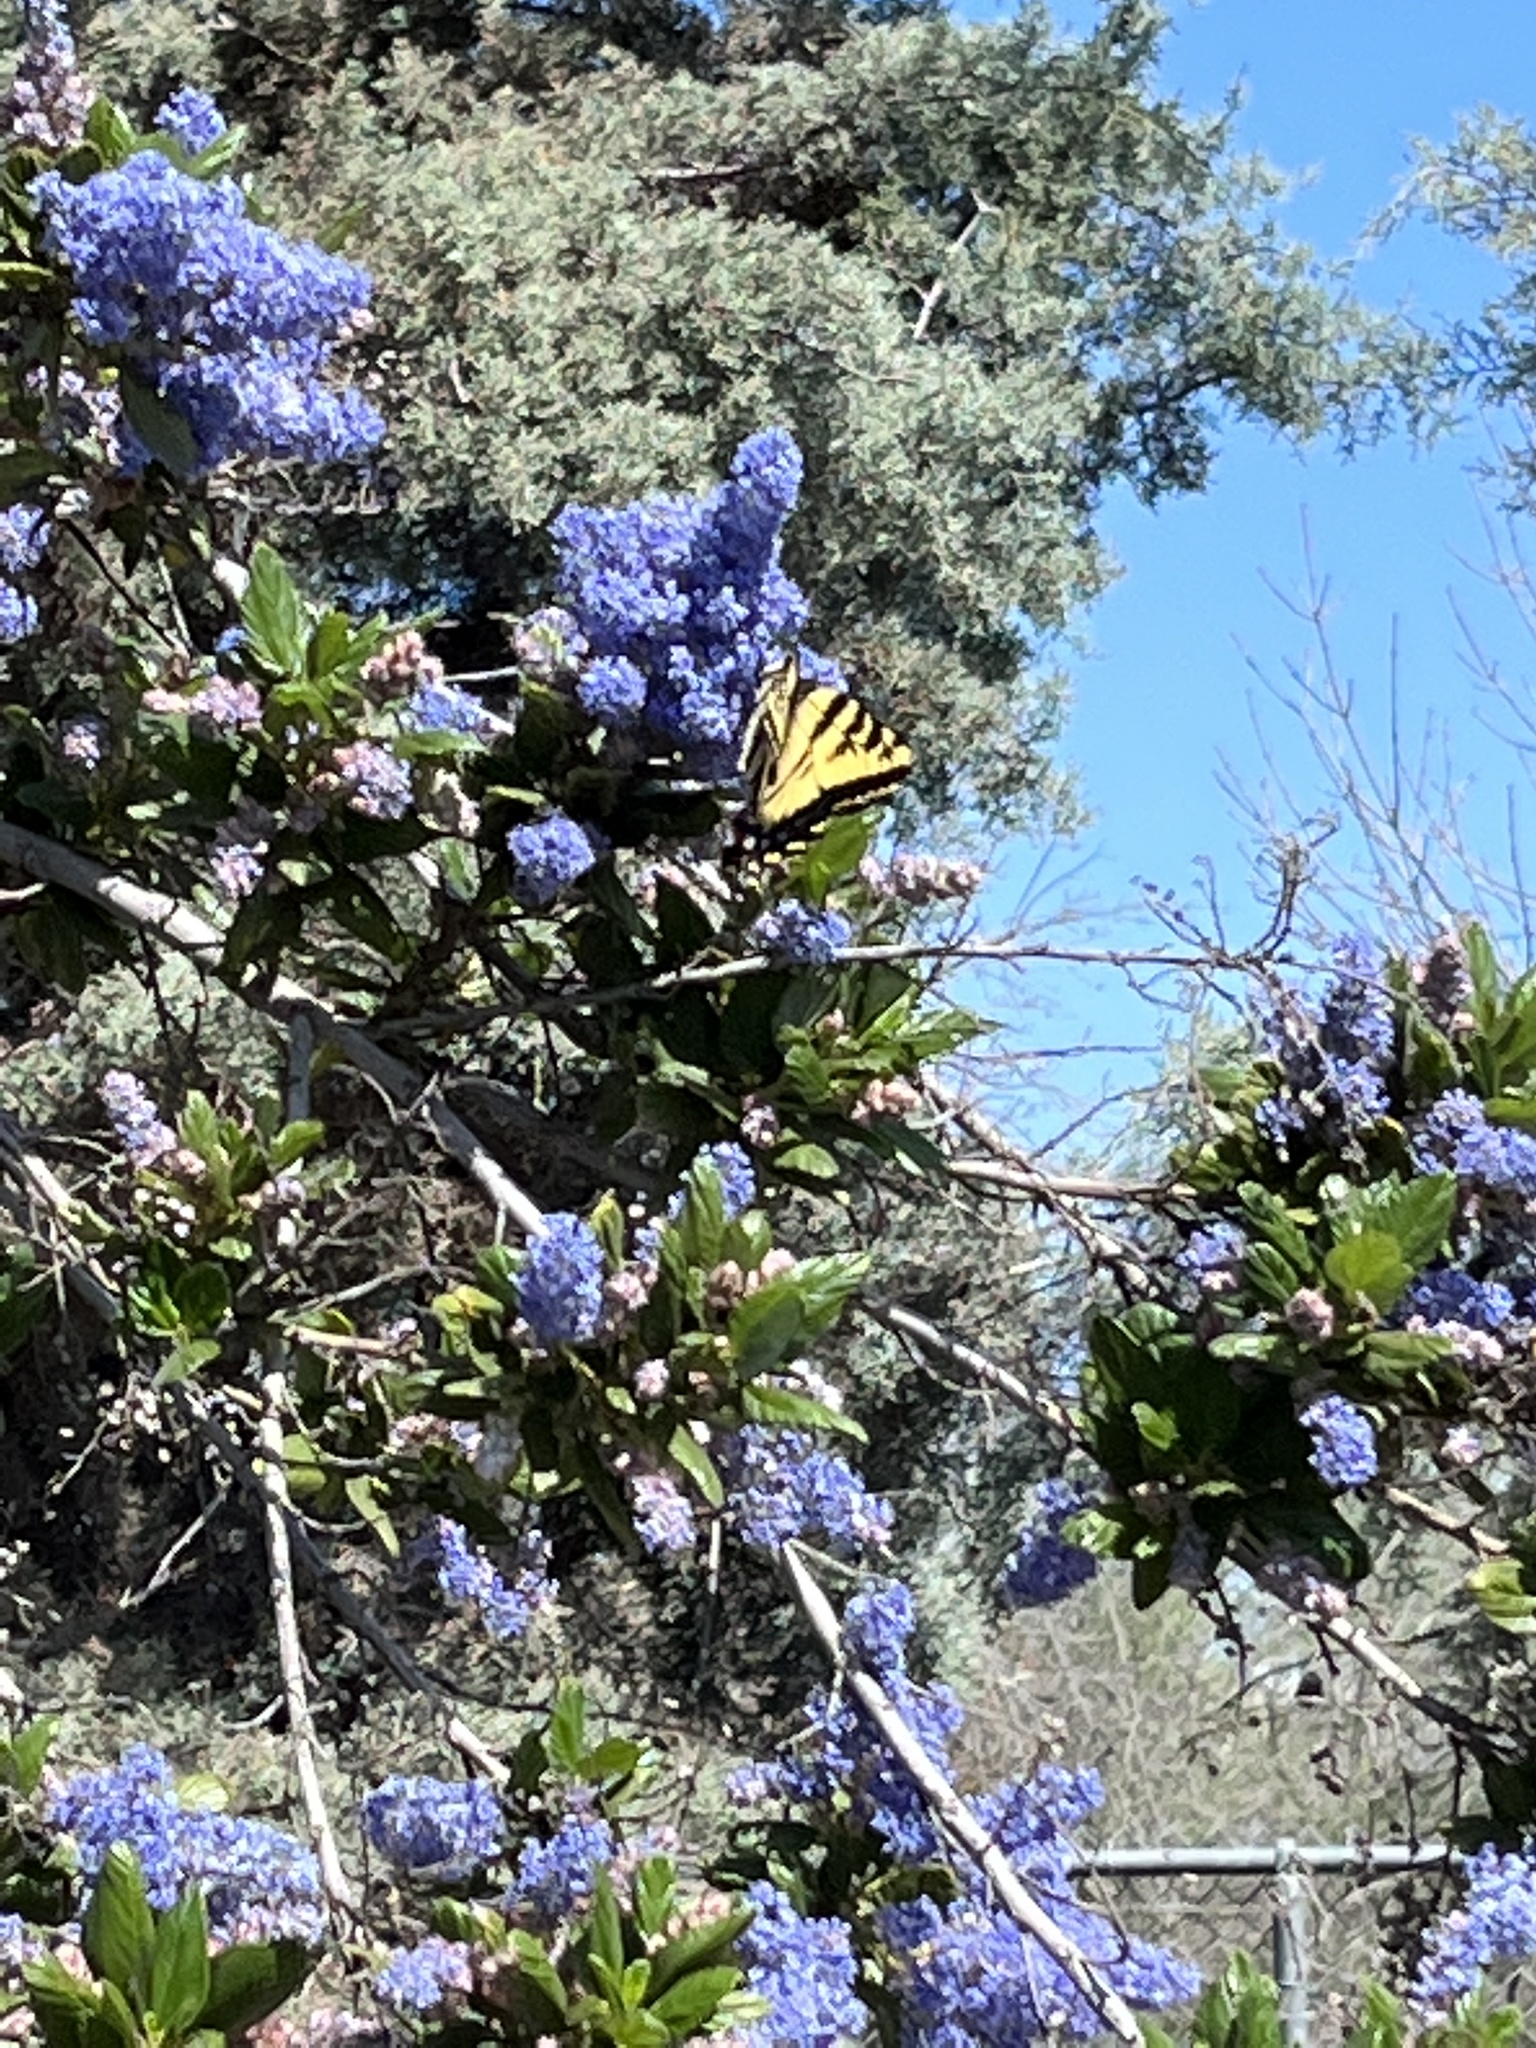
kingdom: Animalia
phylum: Arthropoda
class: Insecta
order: Lepidoptera
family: Papilionidae
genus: Papilio
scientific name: Papilio rutulus
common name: Western tiger swallowtail
